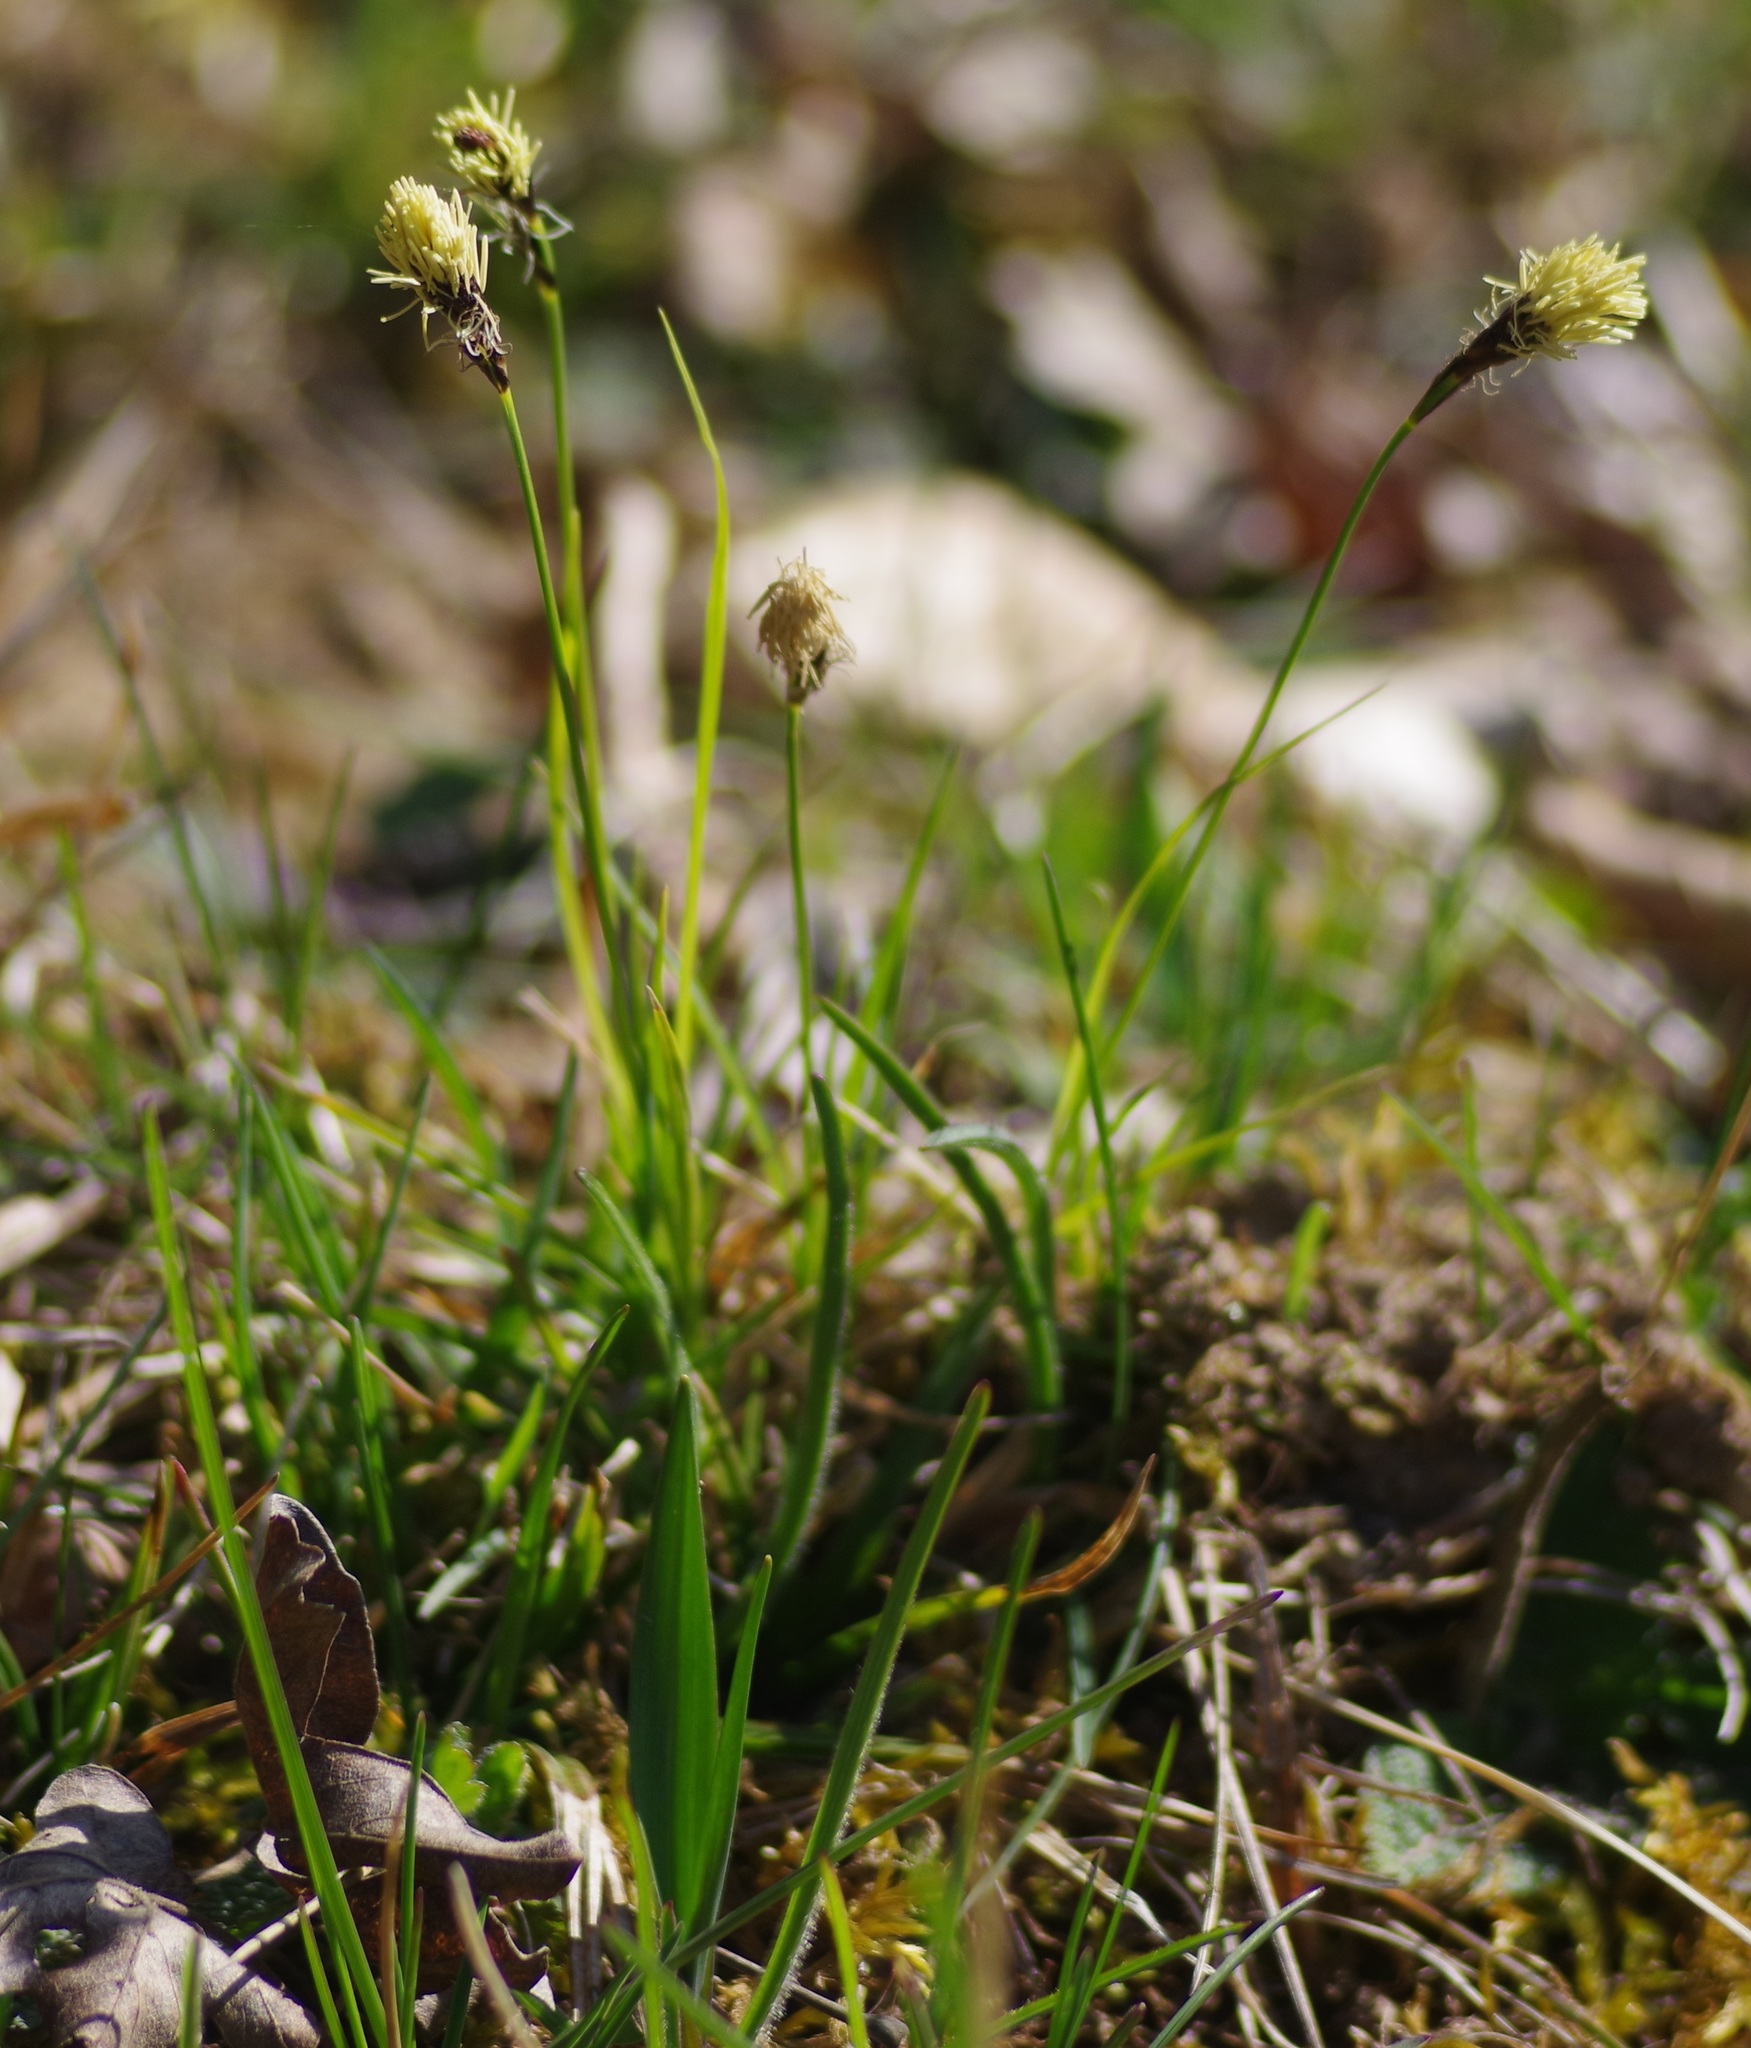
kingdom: Plantae
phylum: Tracheophyta
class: Liliopsida
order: Poales
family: Cyperaceae
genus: Carex
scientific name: Carex montana
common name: Soft-leaved sedge
